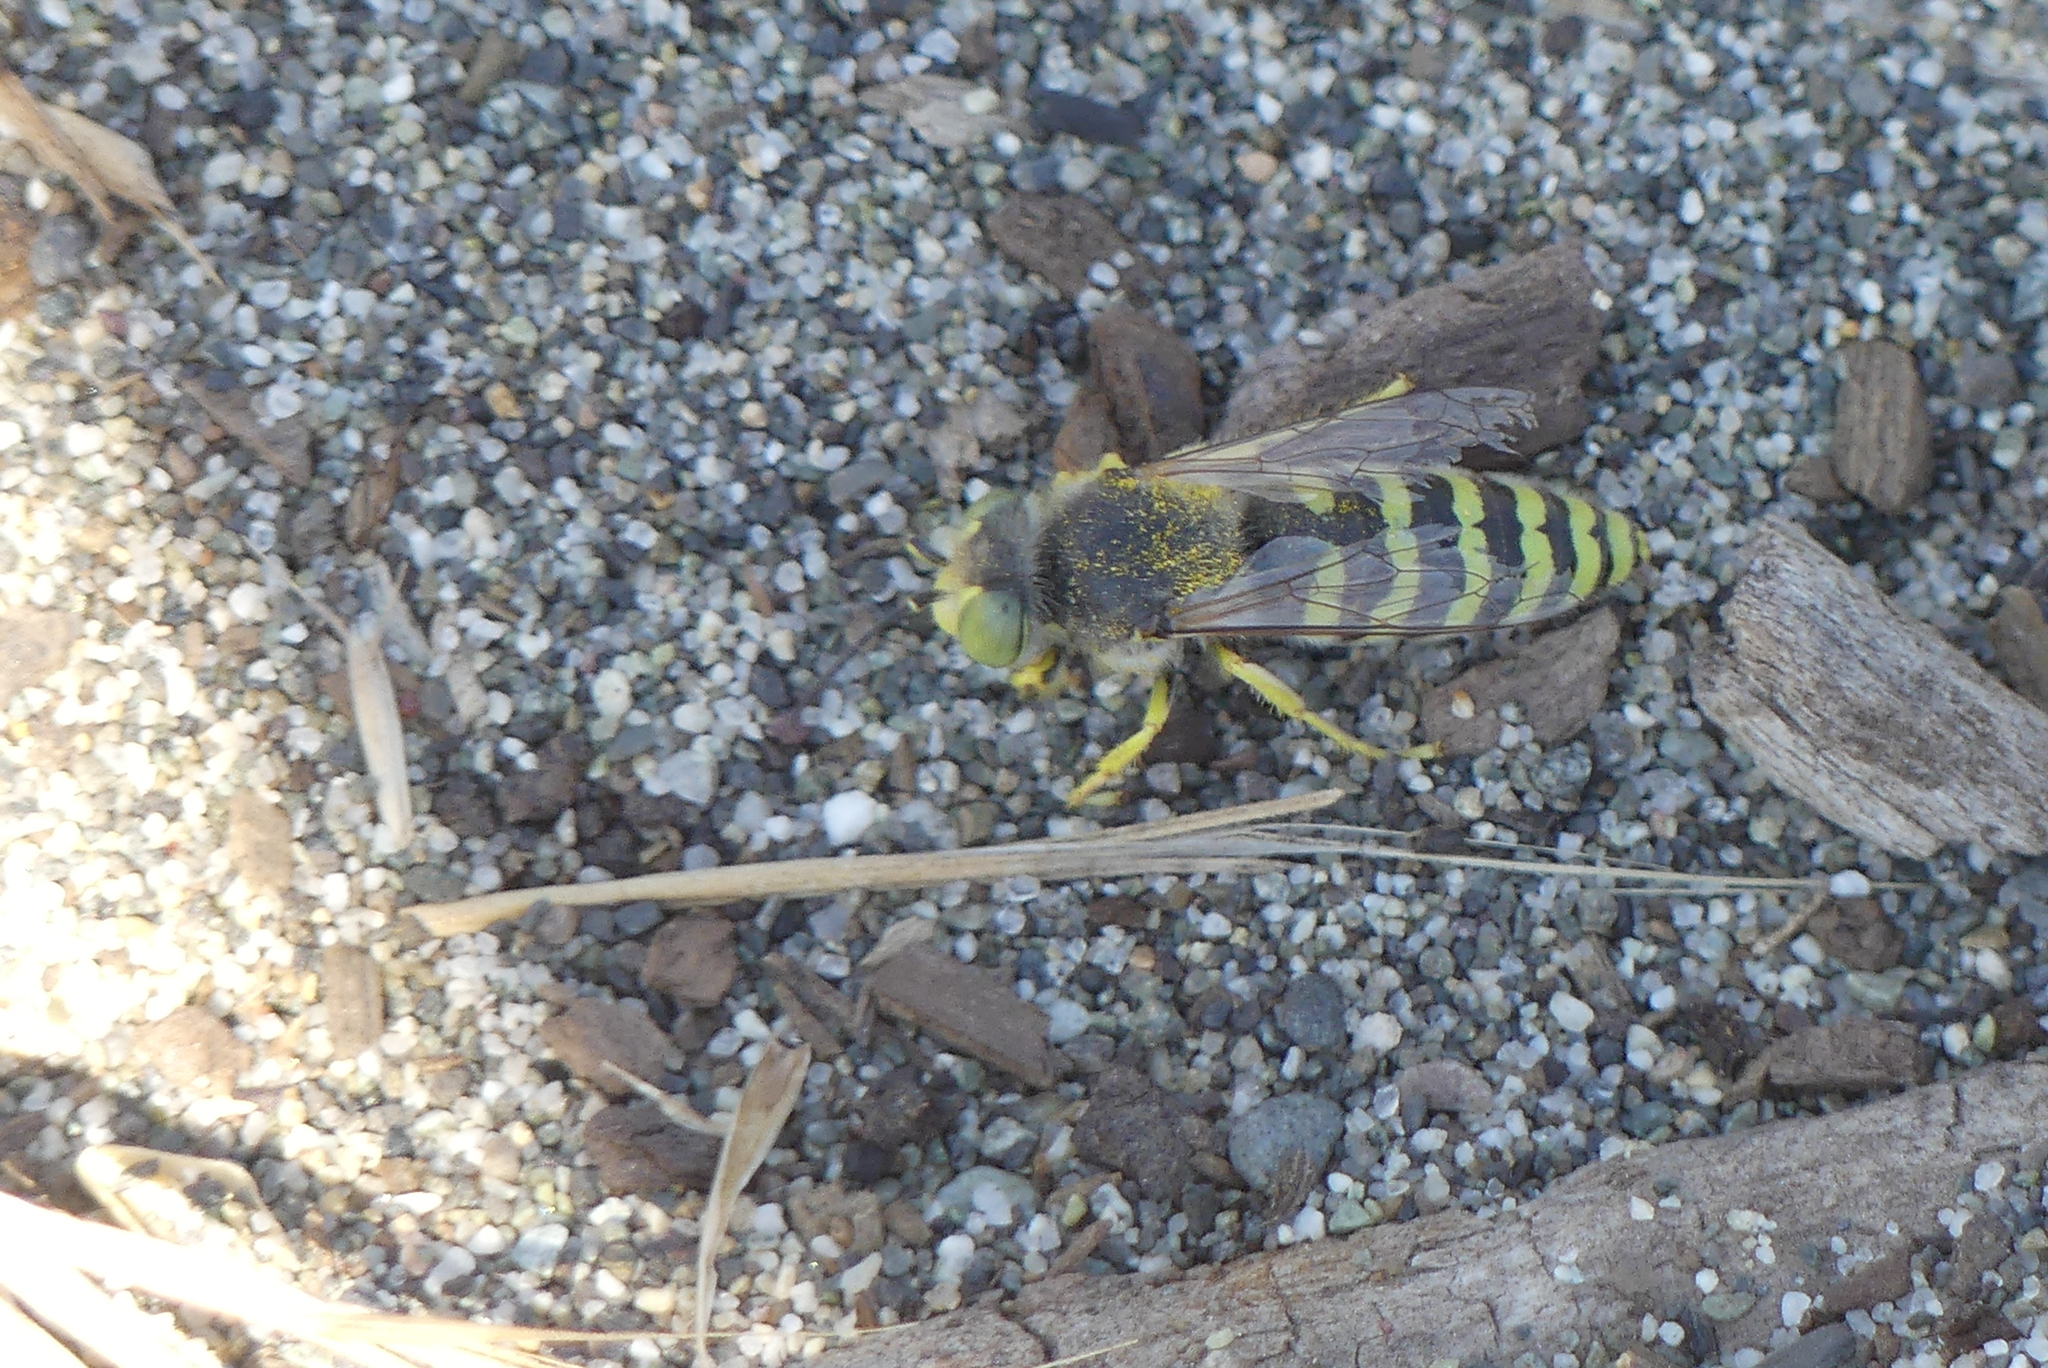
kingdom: Animalia
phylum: Arthropoda
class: Insecta
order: Hymenoptera
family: Crabronidae
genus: Bembix
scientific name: Bembix americana
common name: American sand wasp
